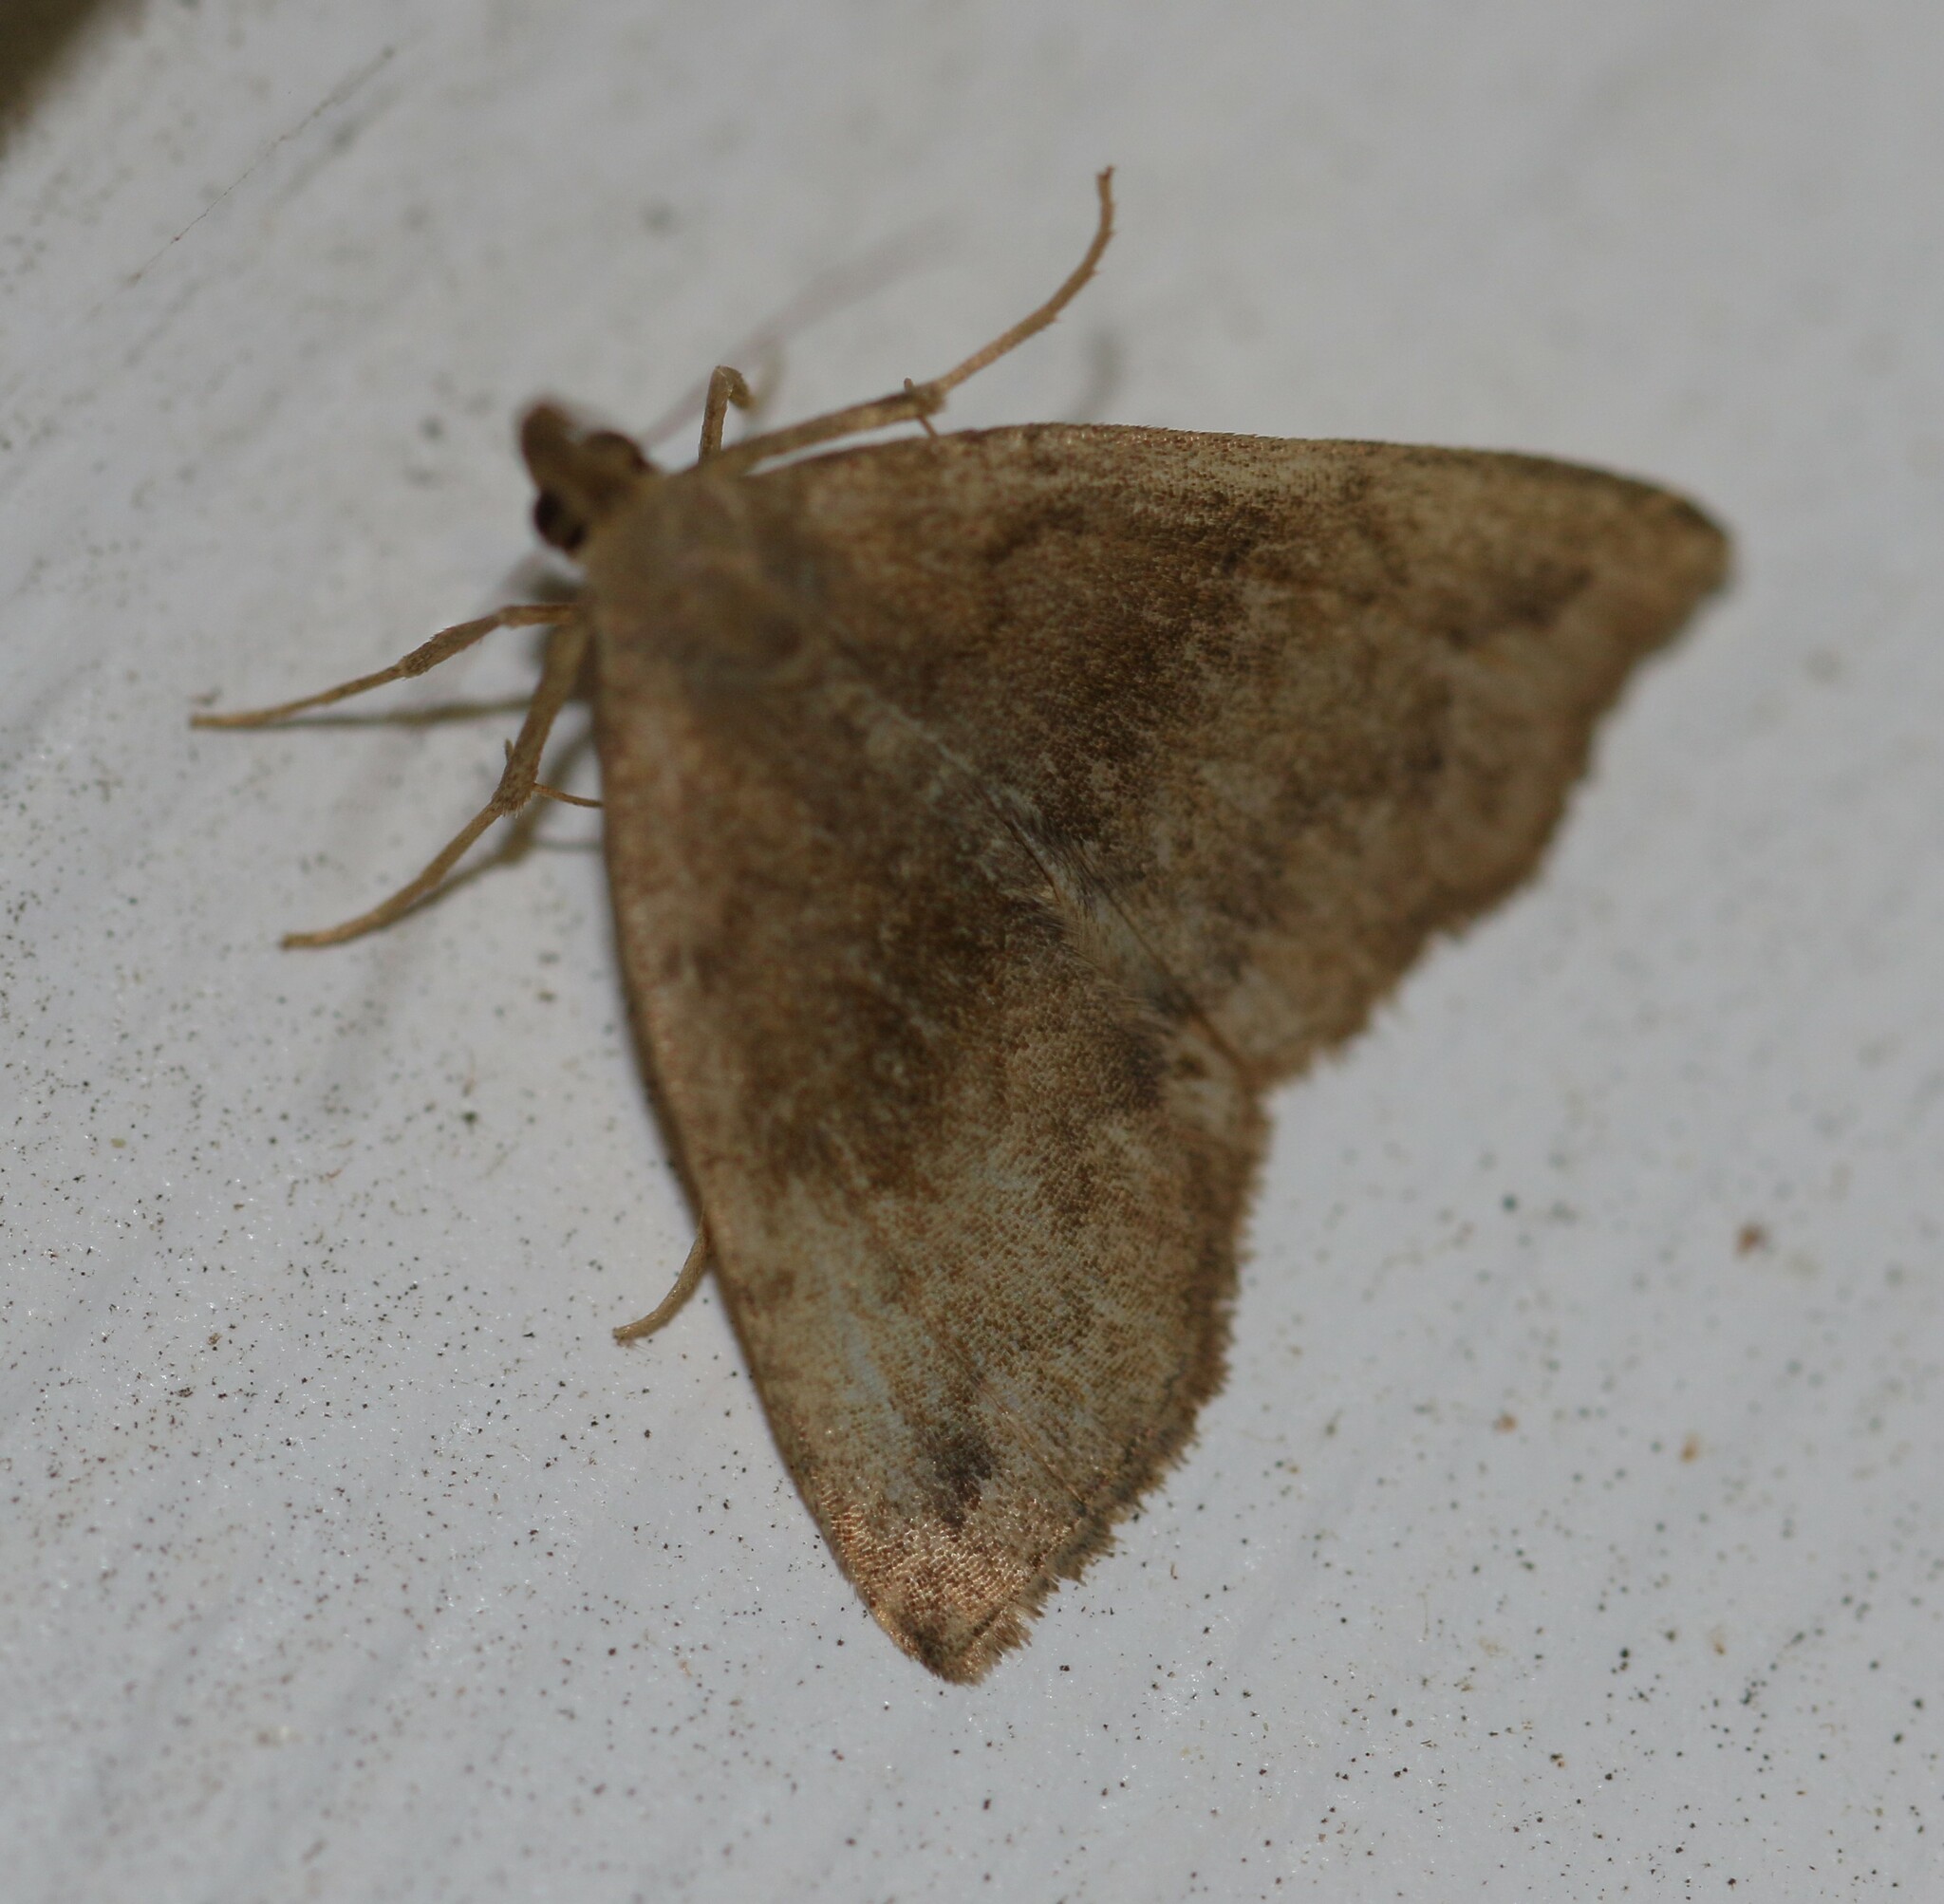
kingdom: Animalia
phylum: Arthropoda
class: Insecta
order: Lepidoptera
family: Erebidae
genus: Phalaenostola
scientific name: Phalaenostola eumelusalis
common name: Dark phalaenostola moth
